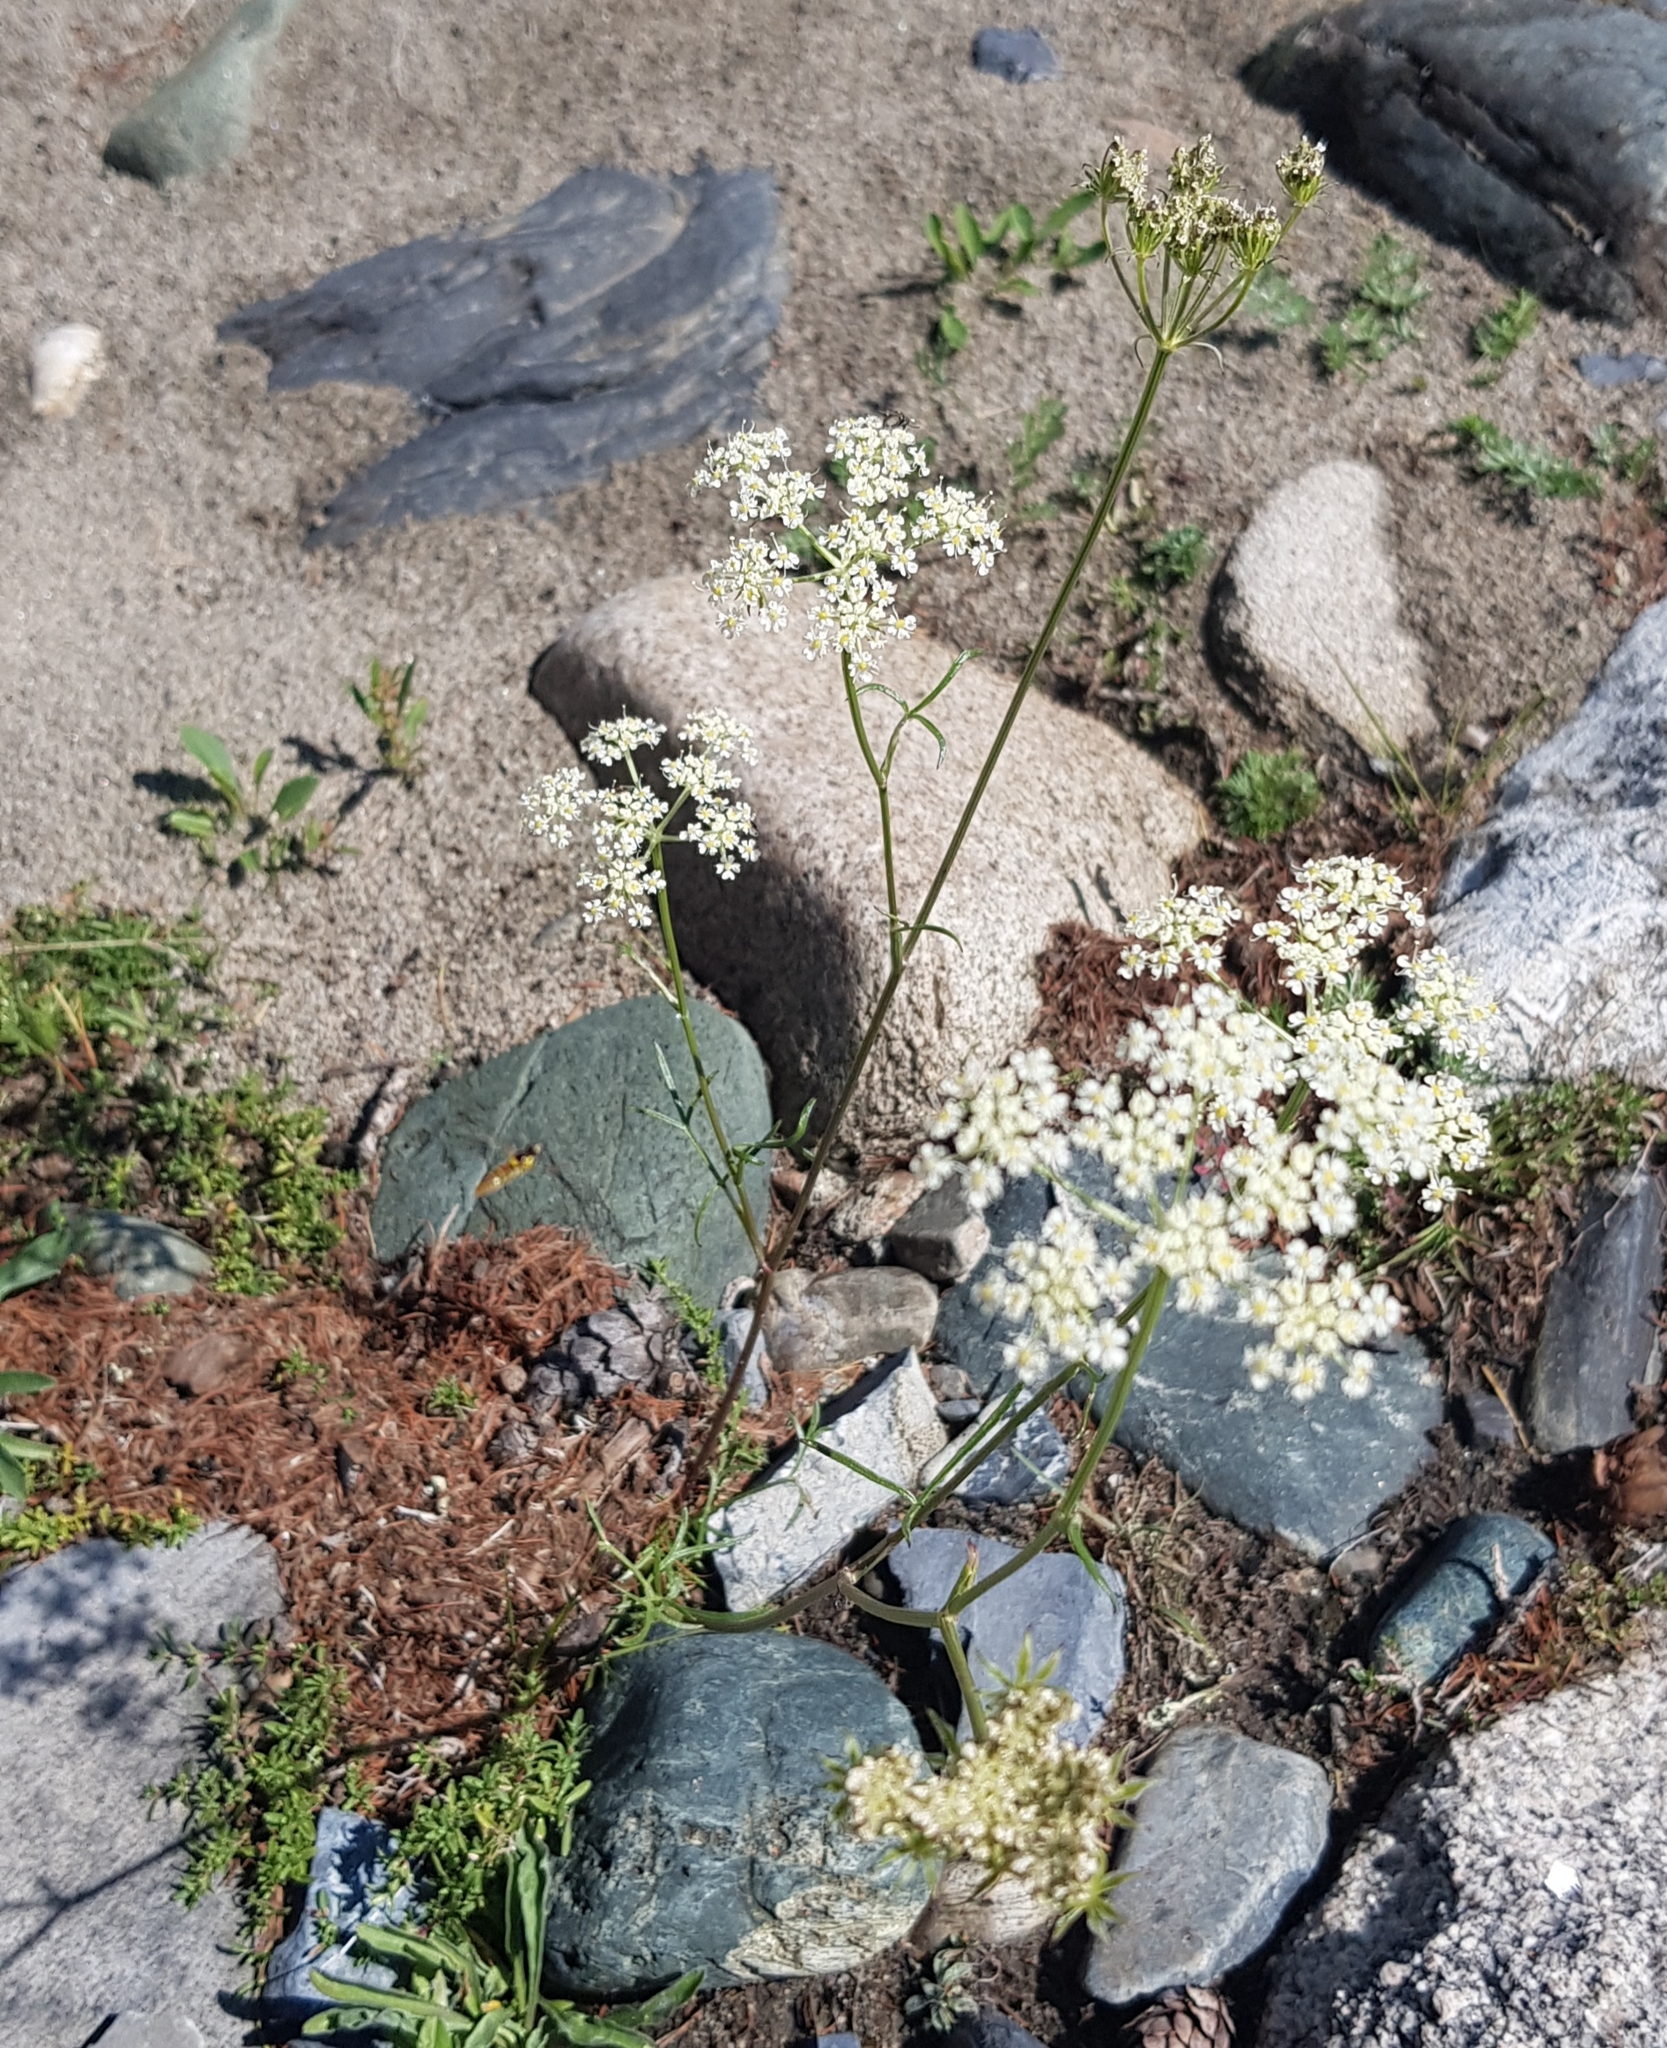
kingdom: Plantae
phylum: Tracheophyta
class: Magnoliopsida
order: Apiales
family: Apiaceae
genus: Kitagawia
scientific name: Kitagawia baicalensis
